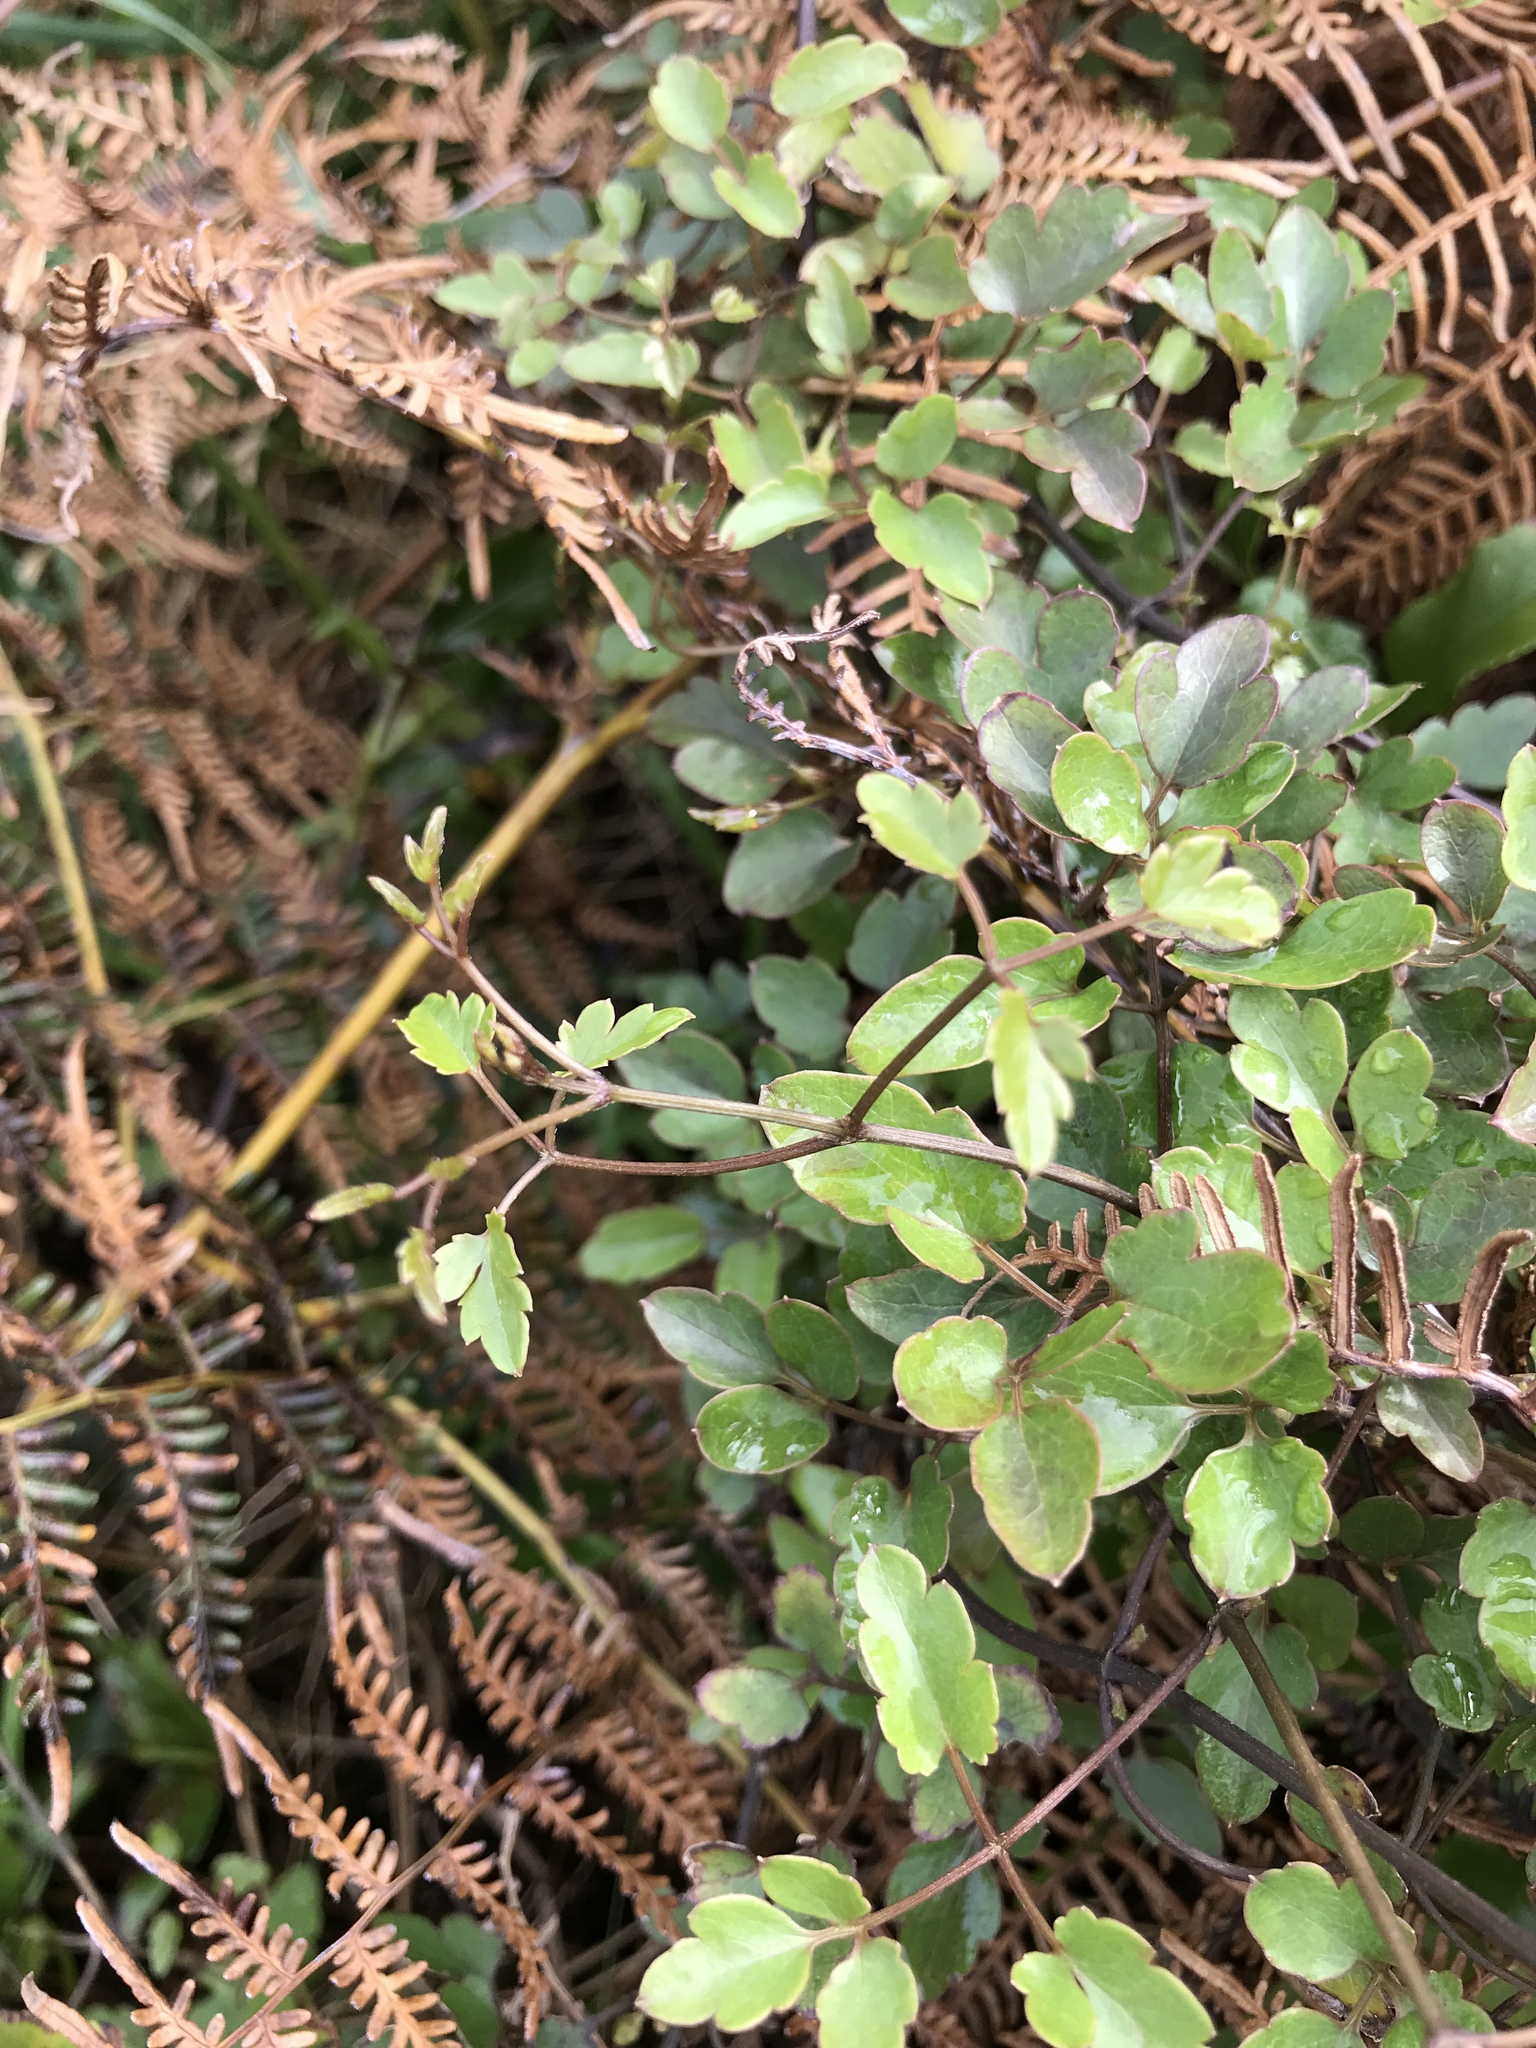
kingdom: Plantae
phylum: Tracheophyta
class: Magnoliopsida
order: Ranunculales
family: Ranunculaceae
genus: Clematis
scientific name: Clematis forsteri
